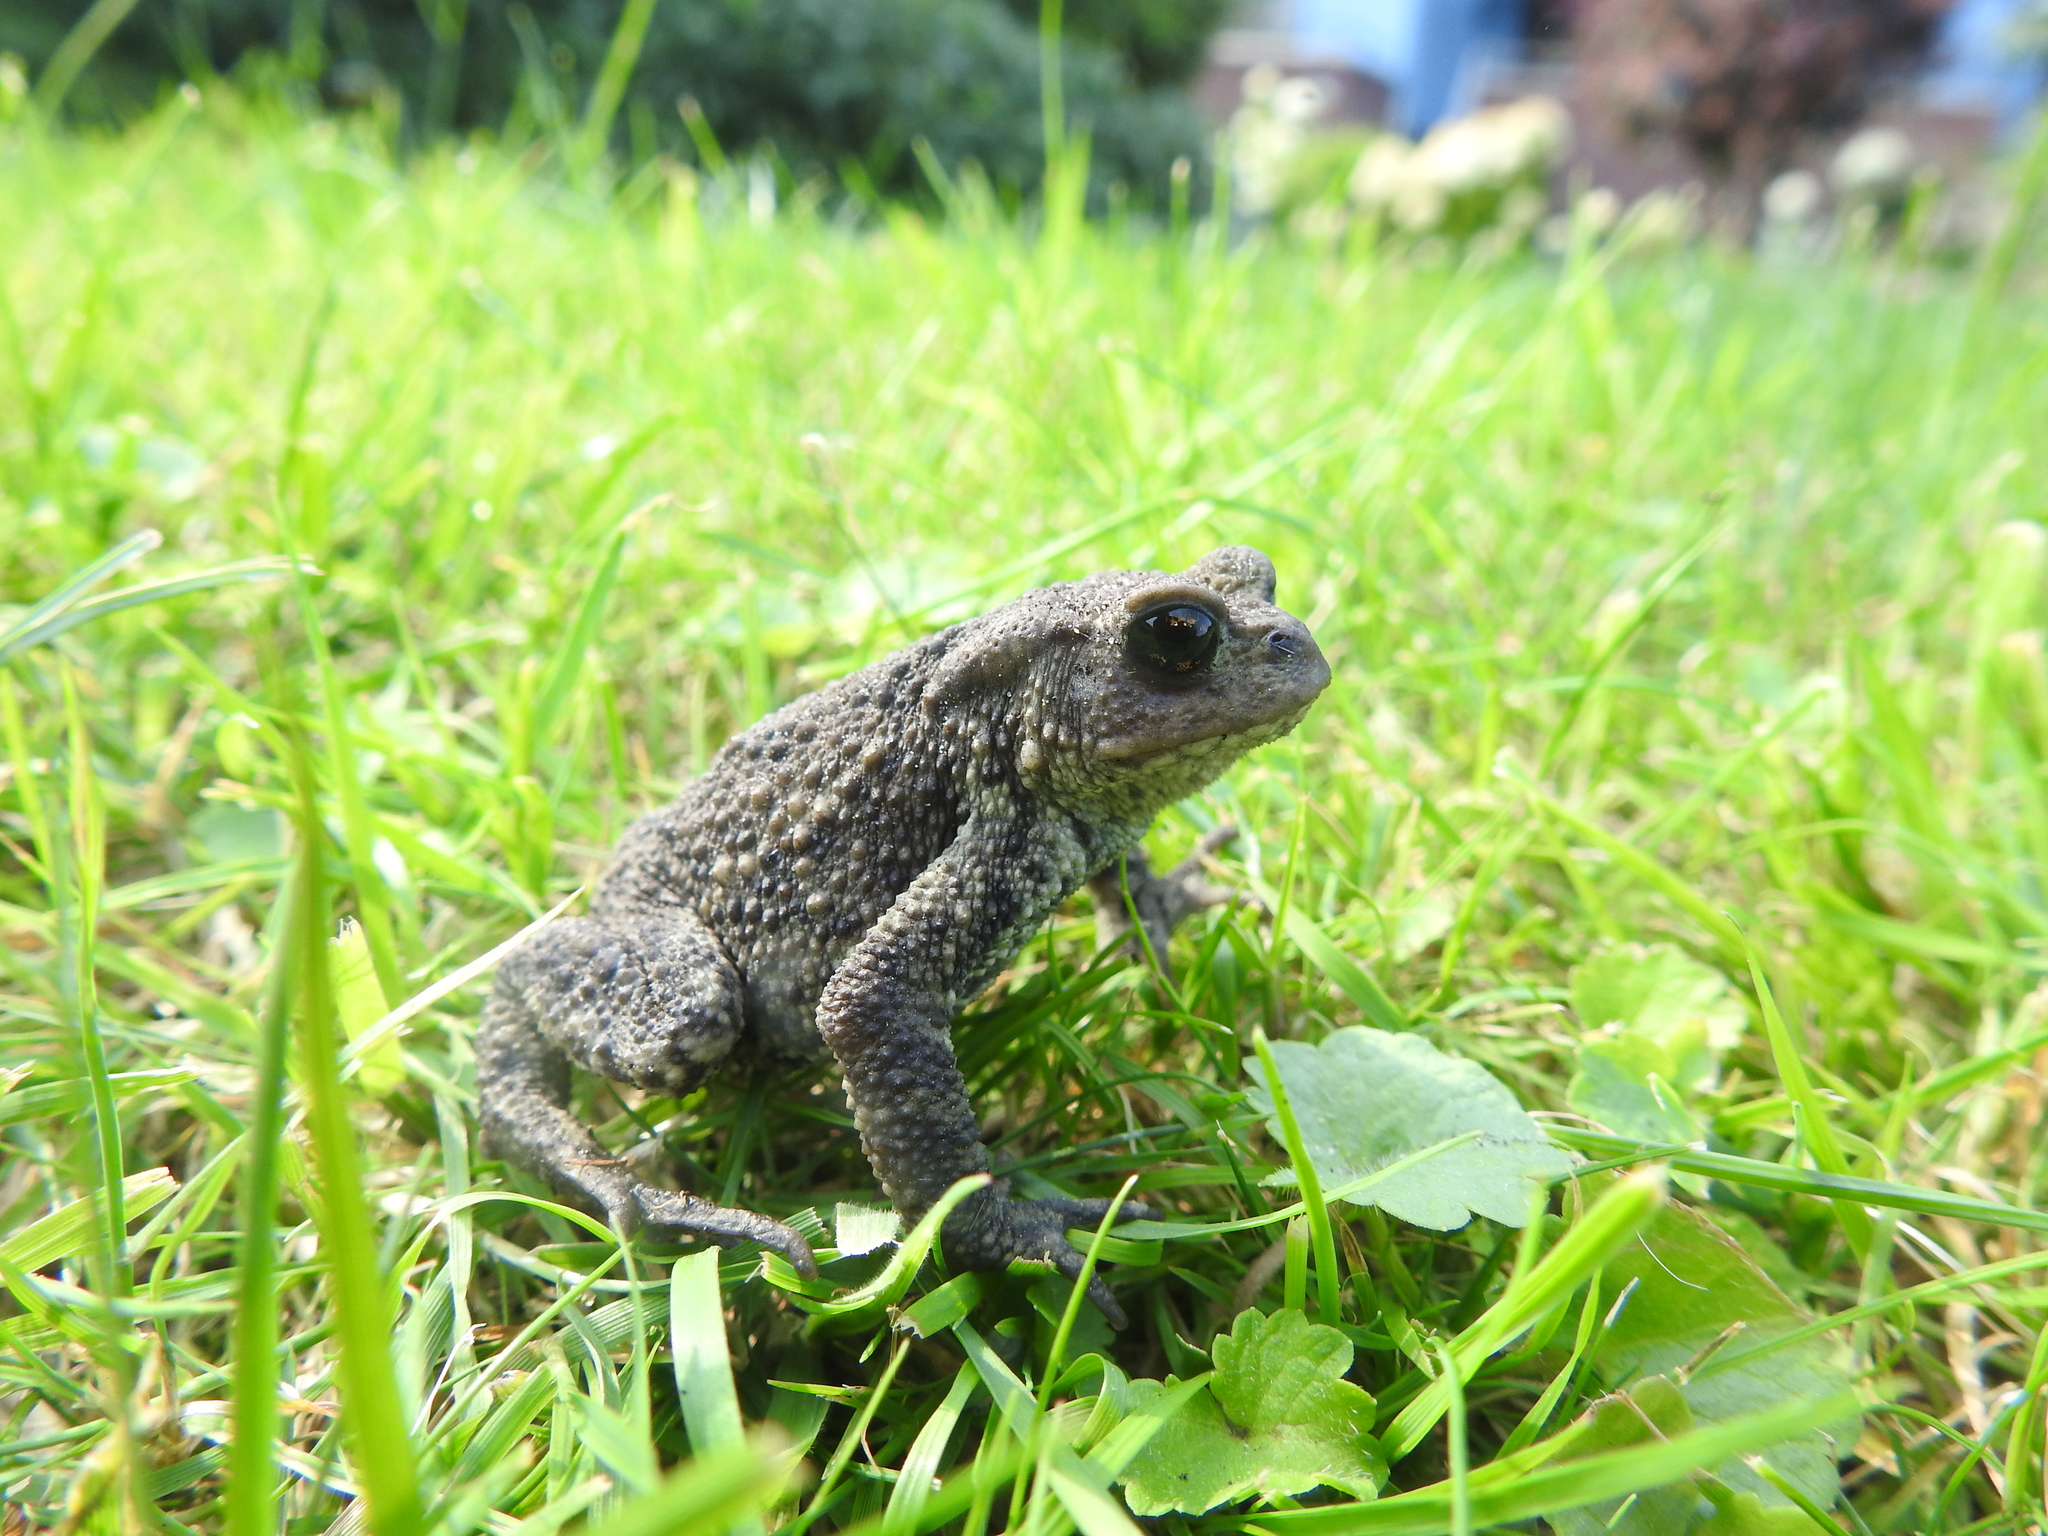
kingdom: Animalia
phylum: Chordata
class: Amphibia
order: Anura
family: Bufonidae
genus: Bufo
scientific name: Bufo bufo
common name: Common toad
